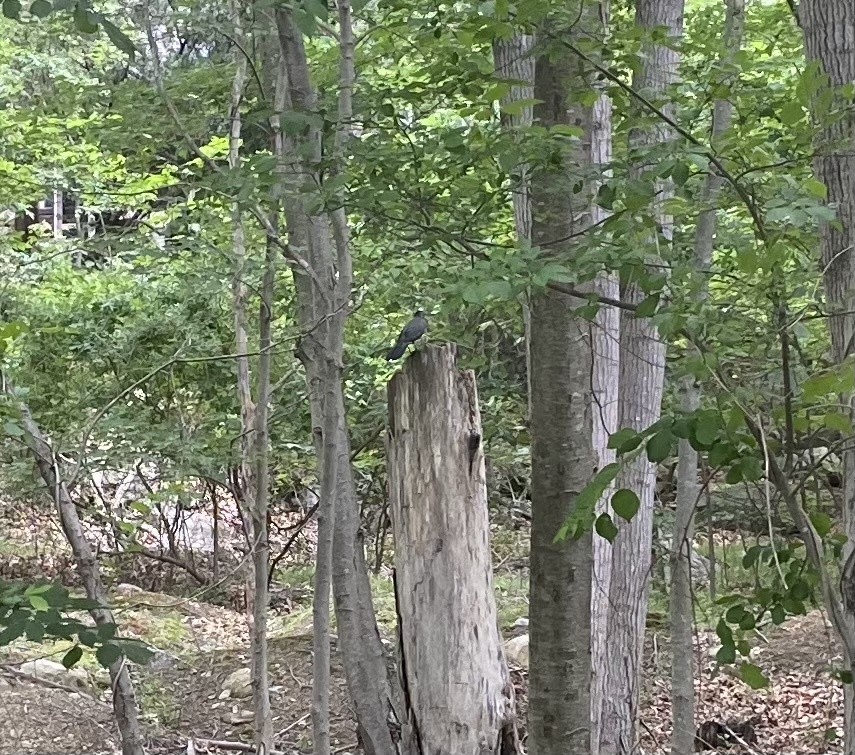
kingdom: Animalia
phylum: Chordata
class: Aves
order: Passeriformes
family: Mimidae
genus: Dumetella
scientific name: Dumetella carolinensis
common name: Gray catbird
